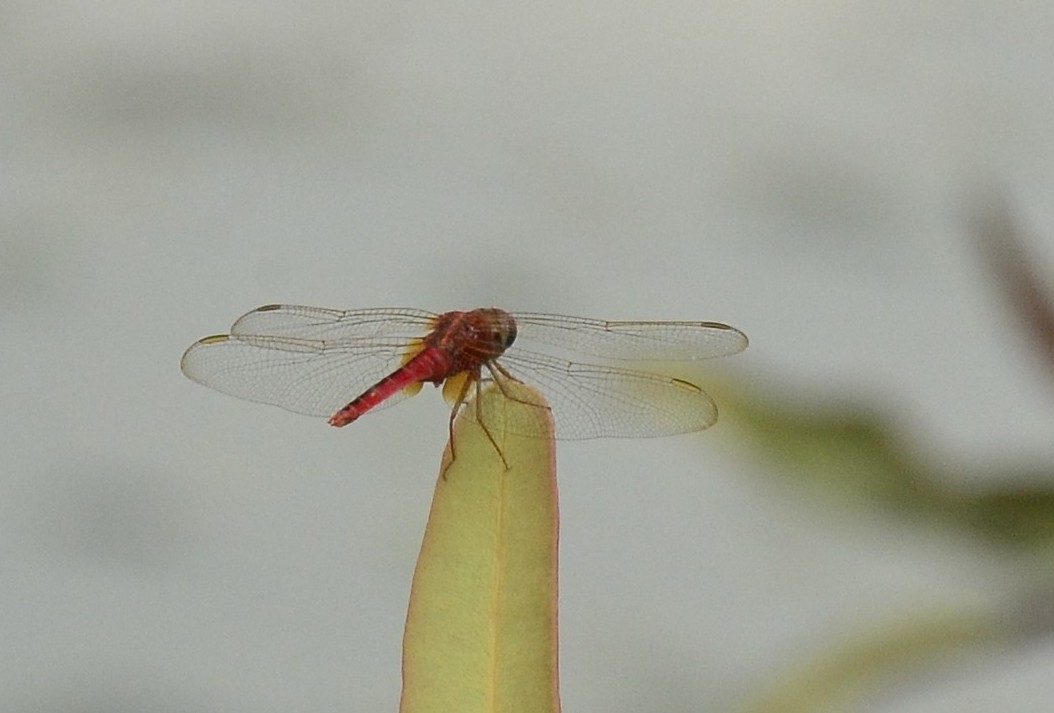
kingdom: Animalia
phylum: Arthropoda
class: Insecta
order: Odonata
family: Libellulidae
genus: Crocothemis
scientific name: Crocothemis servilia
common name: Scarlet skimmer
